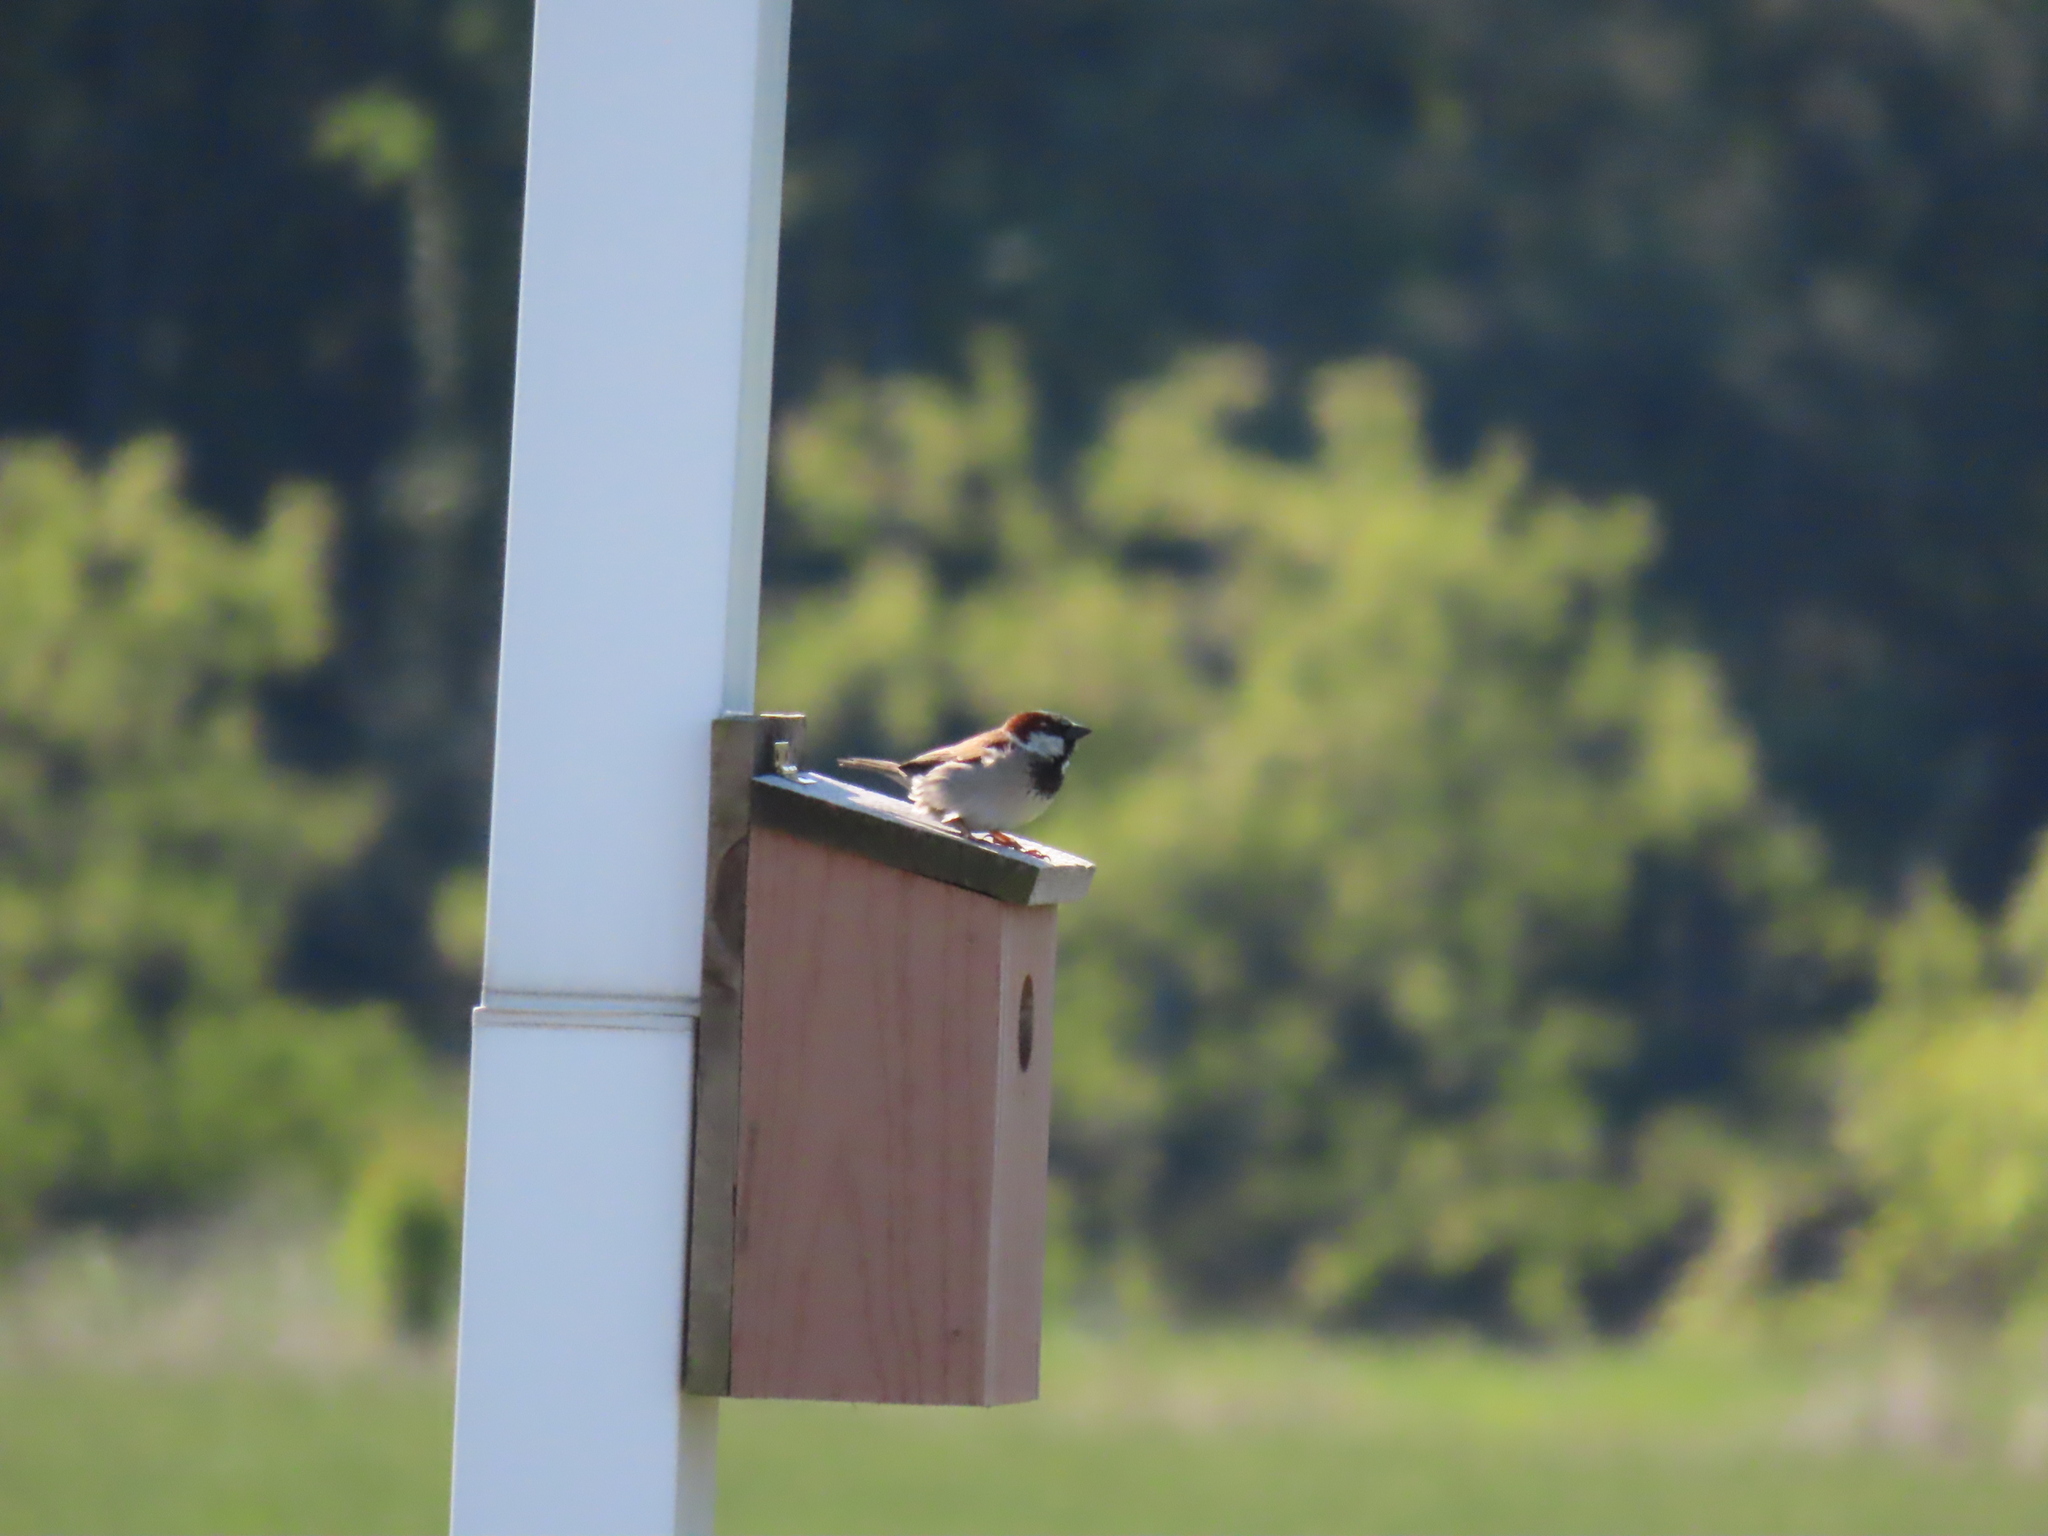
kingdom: Animalia
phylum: Chordata
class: Aves
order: Passeriformes
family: Passeridae
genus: Passer
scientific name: Passer domesticus
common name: House sparrow
